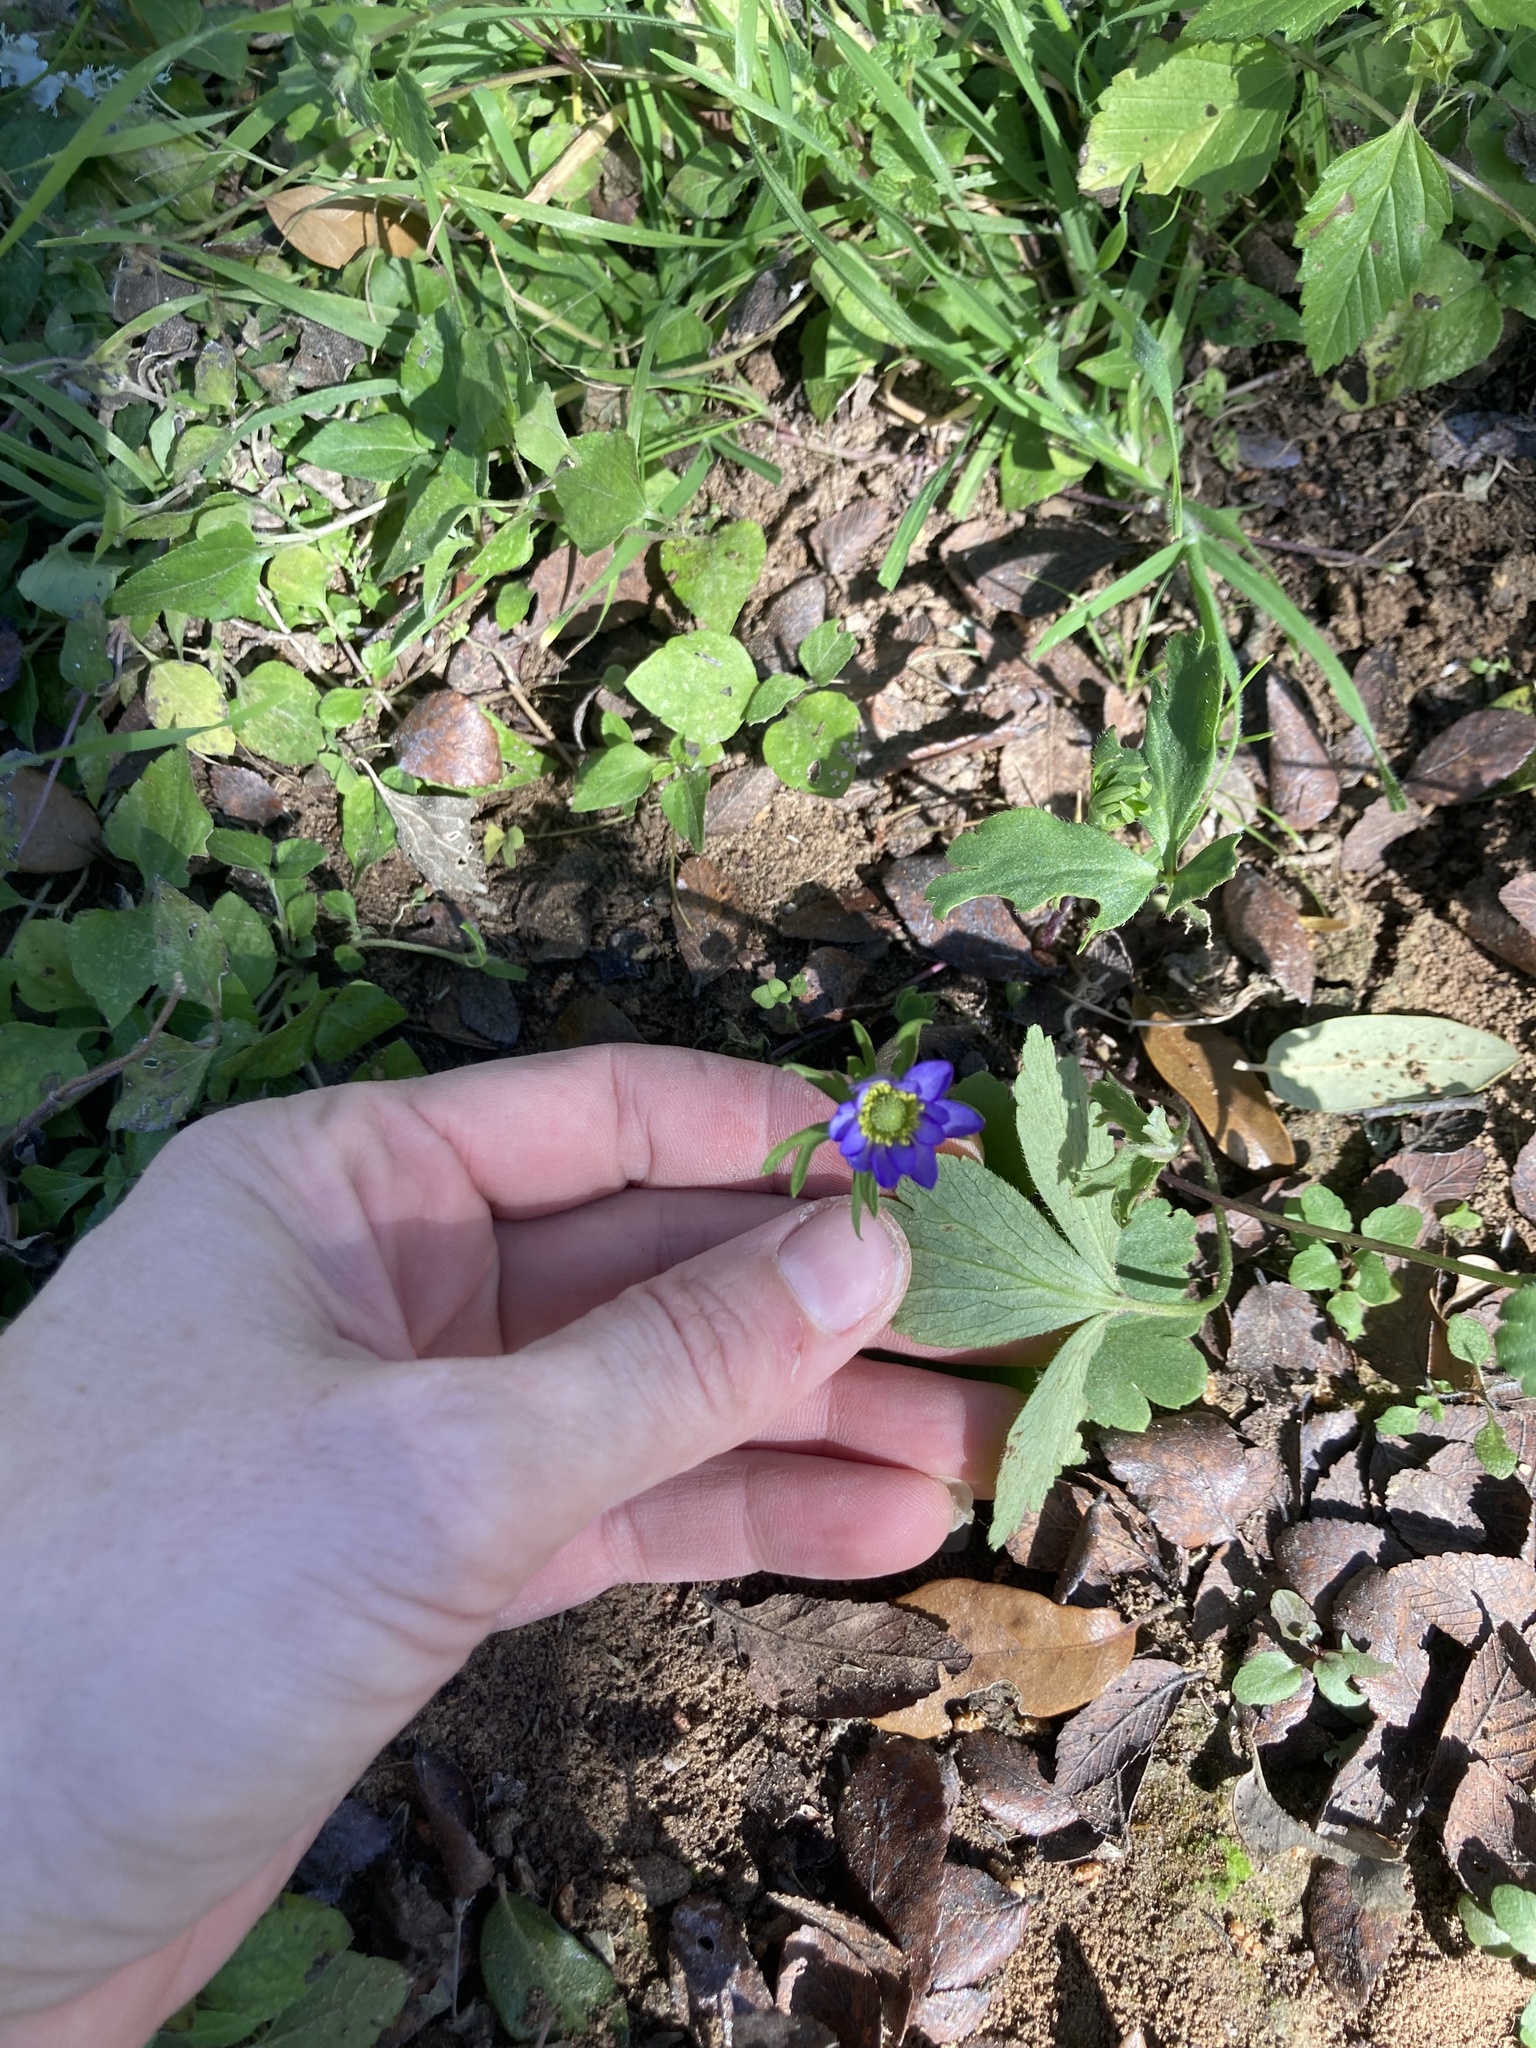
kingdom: Plantae
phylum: Tracheophyta
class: Magnoliopsida
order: Ranunculales
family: Ranunculaceae
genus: Anemone
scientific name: Anemone berlandieri
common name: Ten-petal anemone
